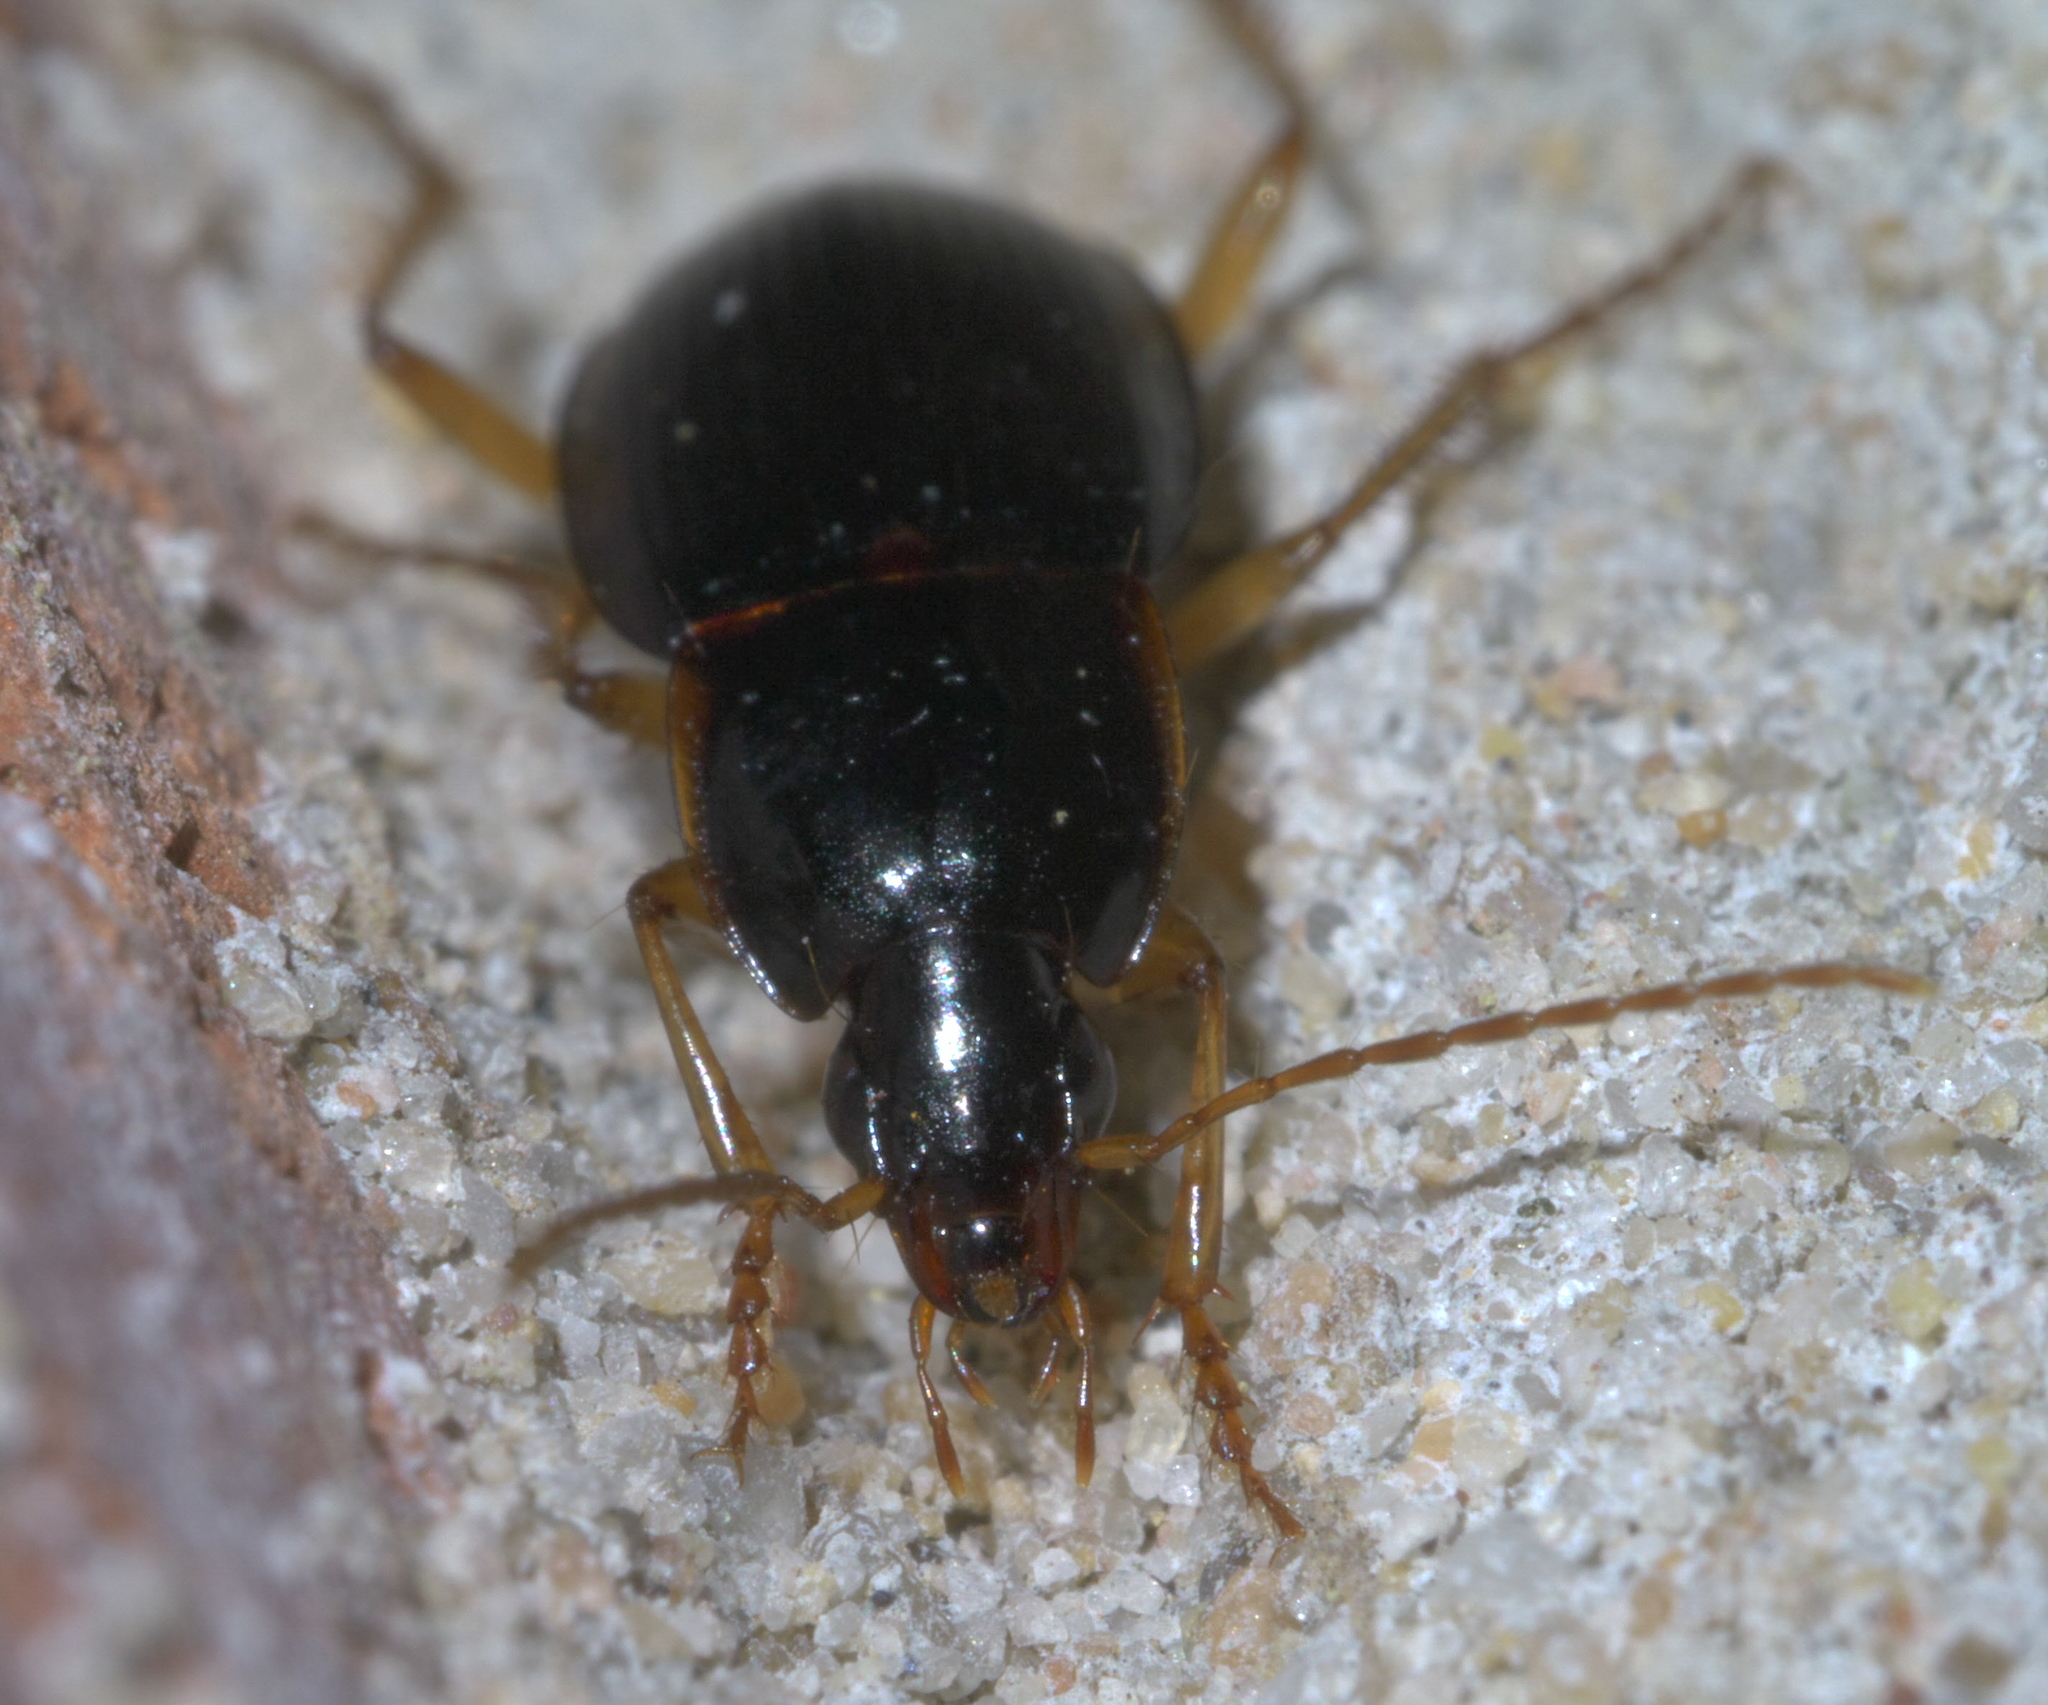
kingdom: Animalia
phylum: Arthropoda
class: Insecta
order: Coleoptera
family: Carabidae
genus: Calathus
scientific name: Calathus opaculus
